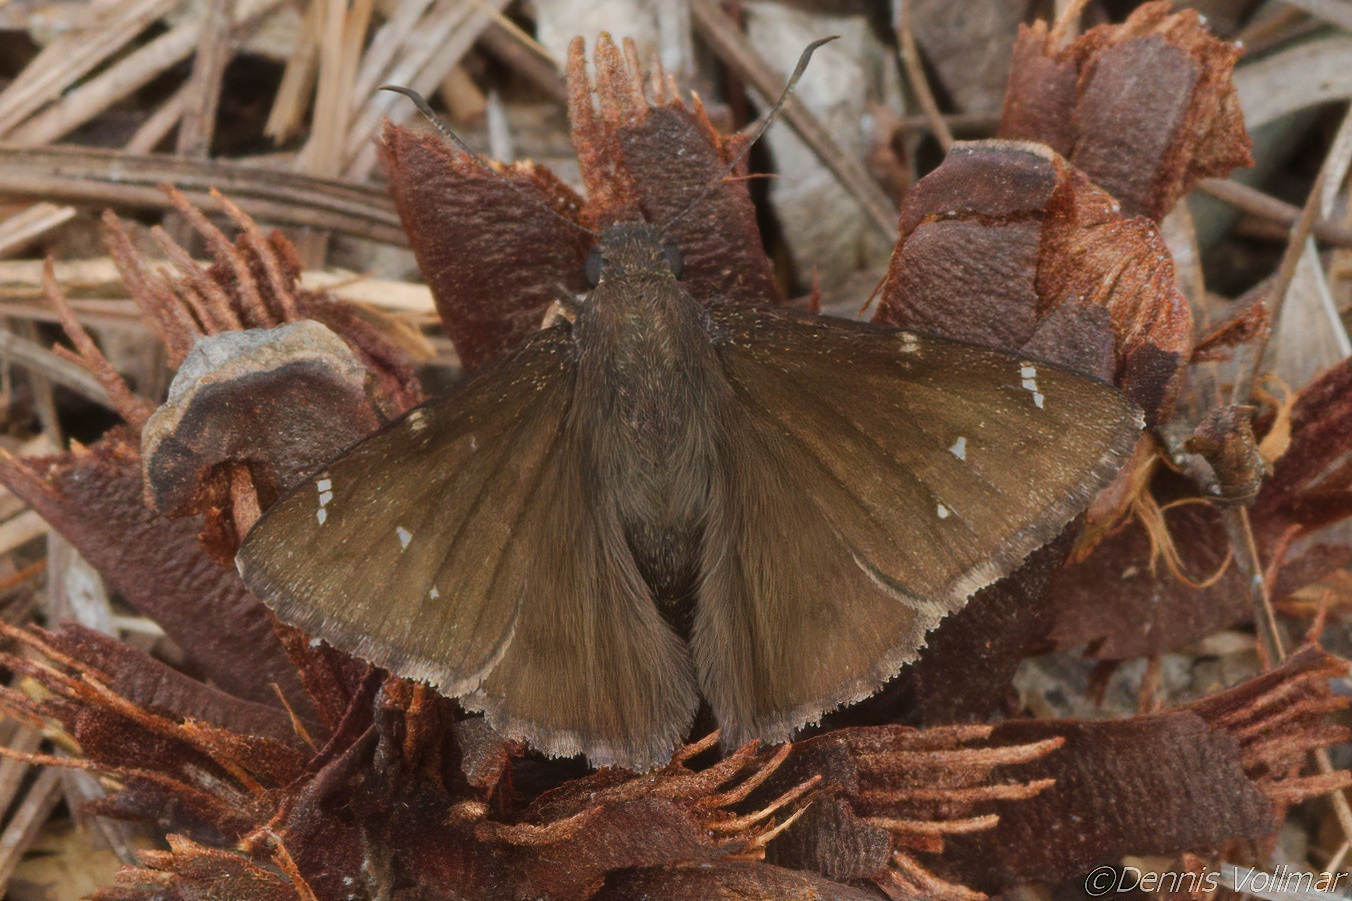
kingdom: Animalia
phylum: Arthropoda
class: Insecta
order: Lepidoptera
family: Hesperiidae
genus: Thorybes
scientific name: Thorybes pylades
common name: Northern cloudywing
